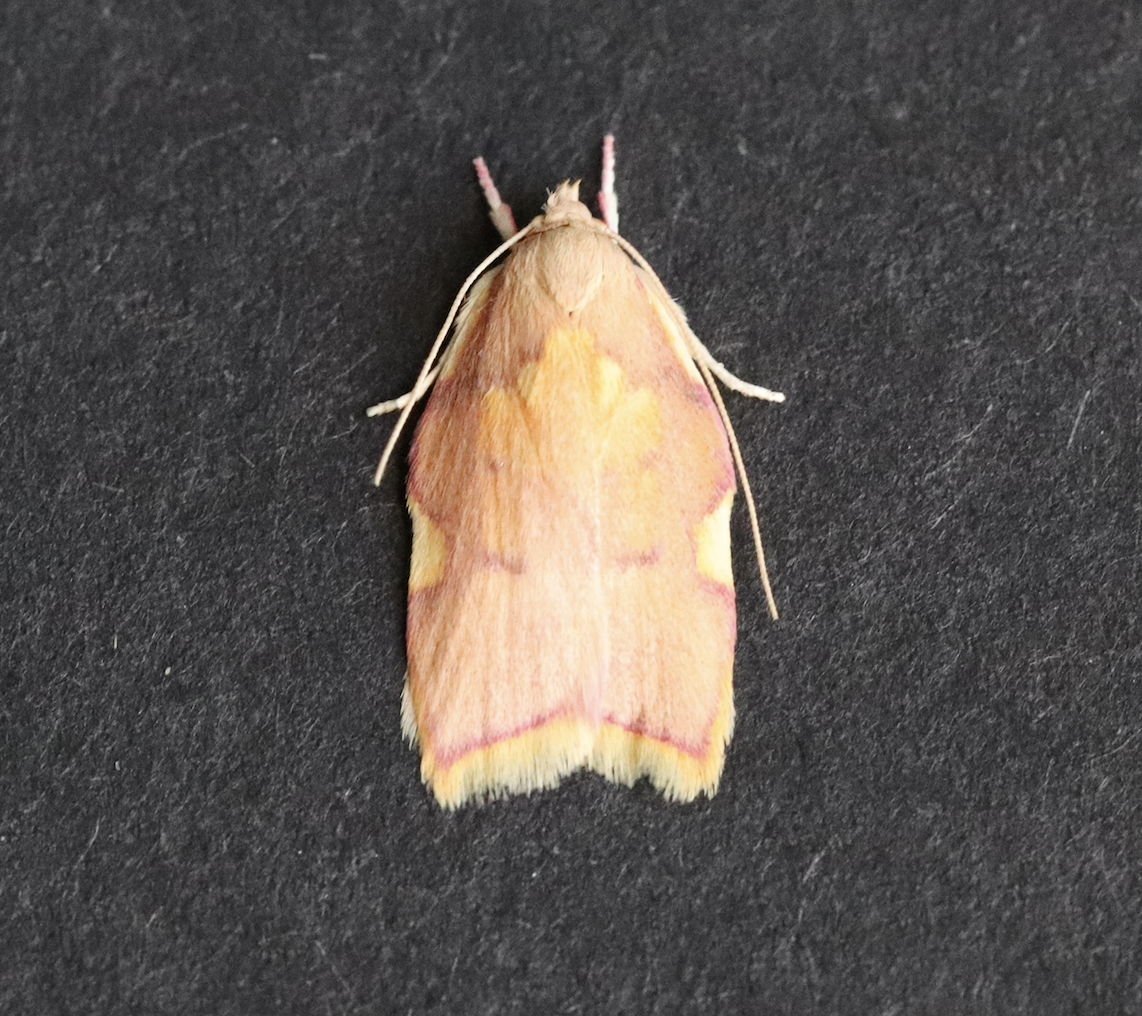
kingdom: Animalia
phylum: Arthropoda
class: Insecta
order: Lepidoptera
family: Peleopodidae
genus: Carcina
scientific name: Carcina quercana
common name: Moth
